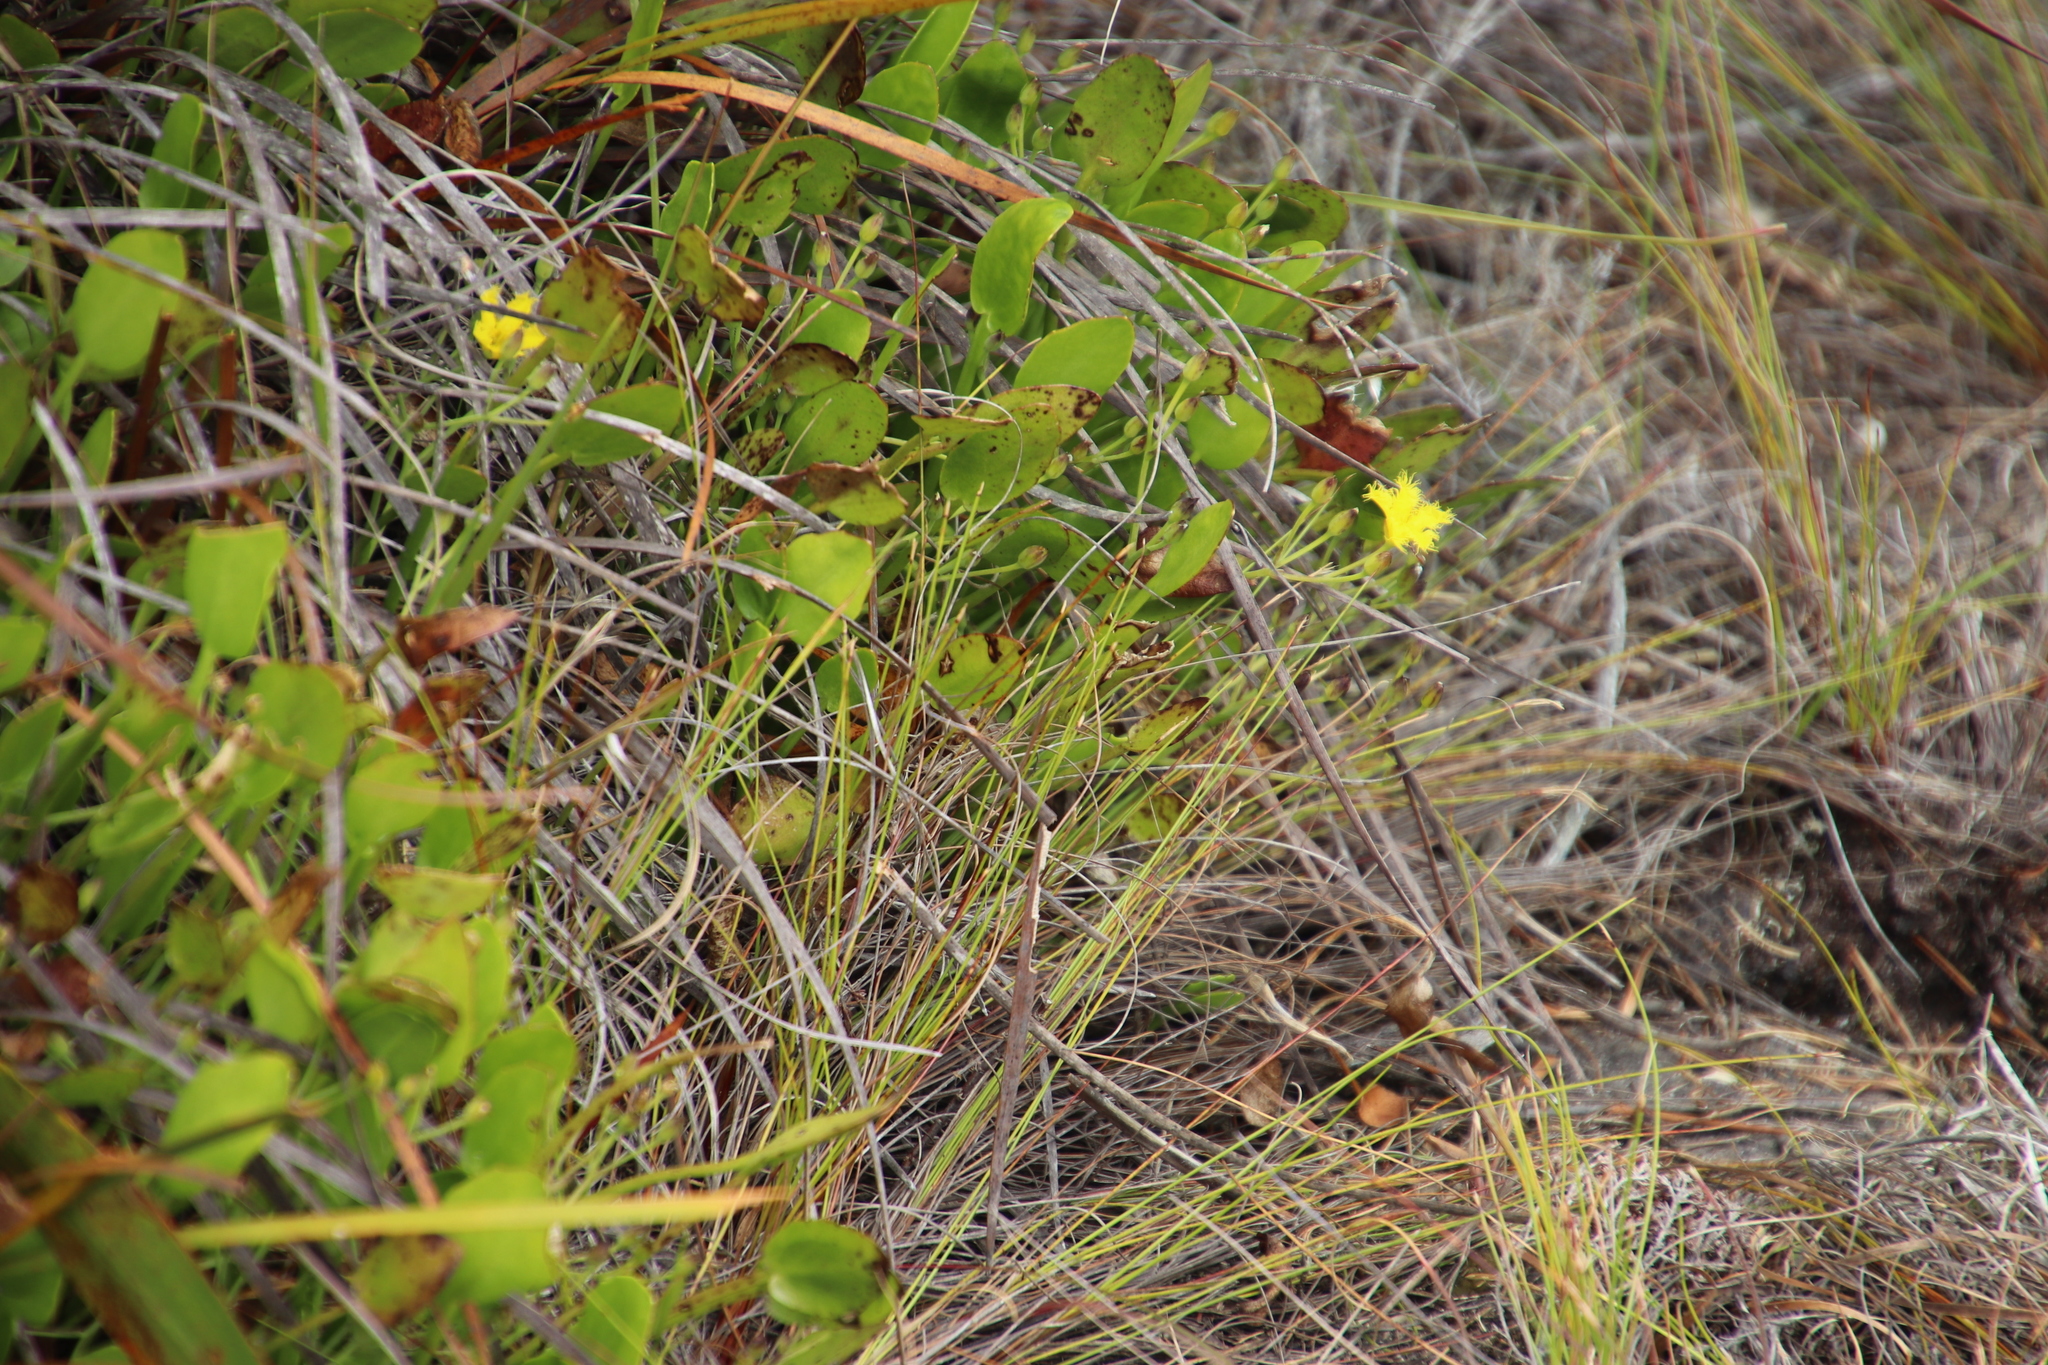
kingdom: Plantae
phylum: Tracheophyta
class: Magnoliopsida
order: Asterales
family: Menyanthaceae
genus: Villarsia
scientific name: Villarsia manningiana
